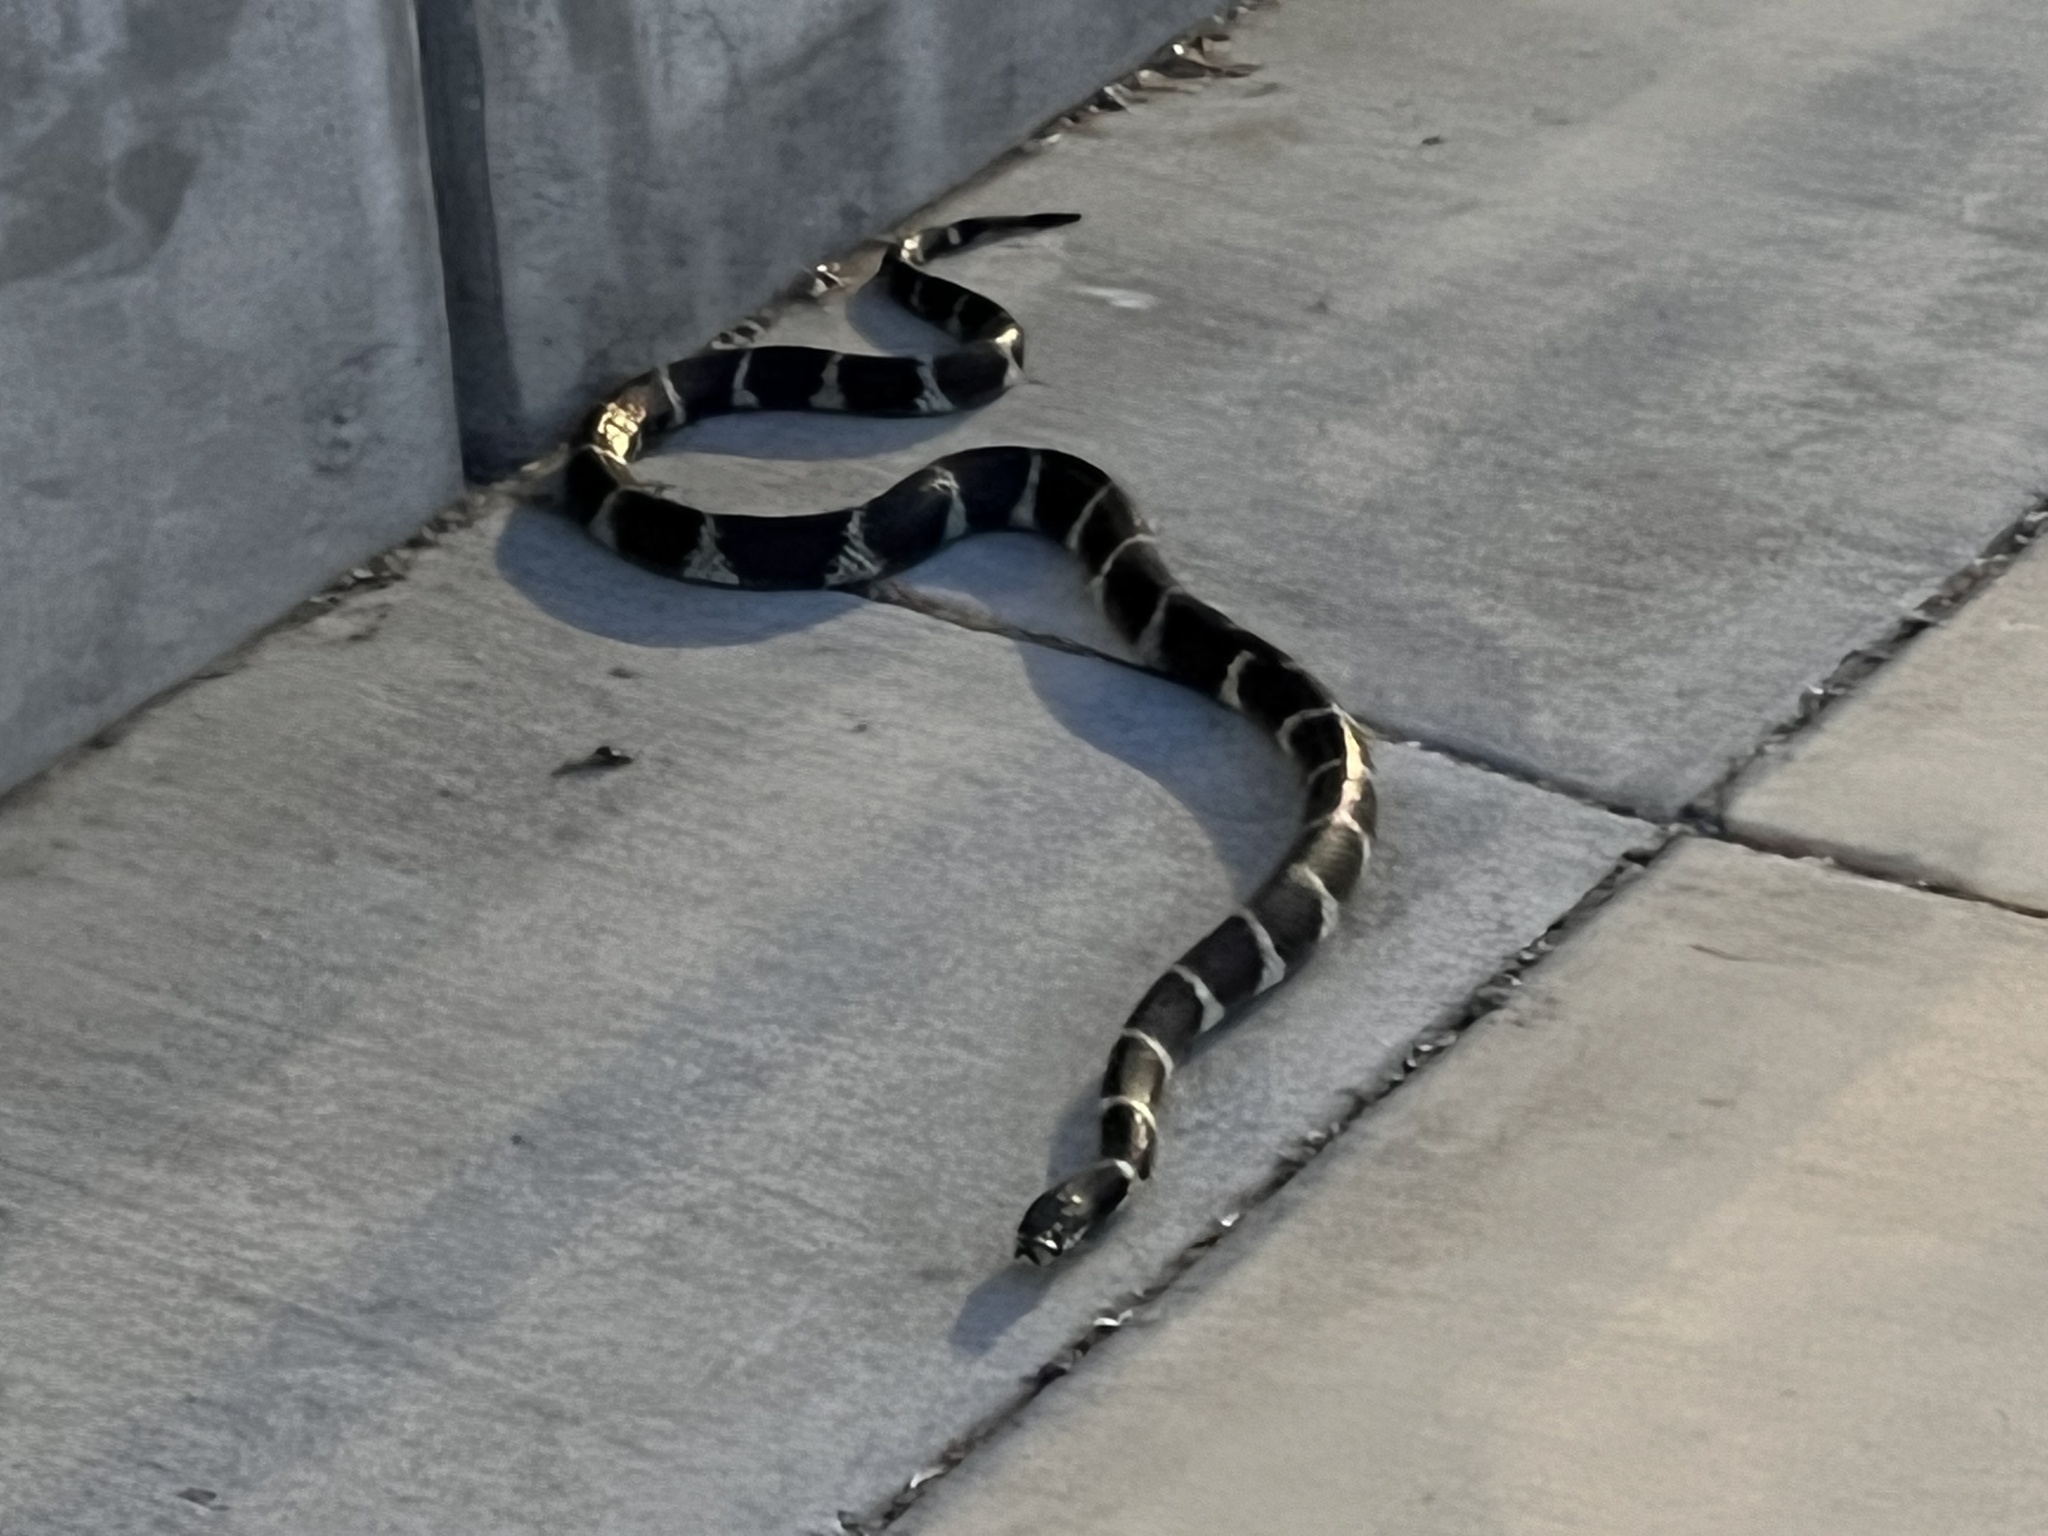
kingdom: Animalia
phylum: Chordata
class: Squamata
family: Colubridae
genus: Lampropeltis
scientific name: Lampropeltis californiae
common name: California kingsnake
